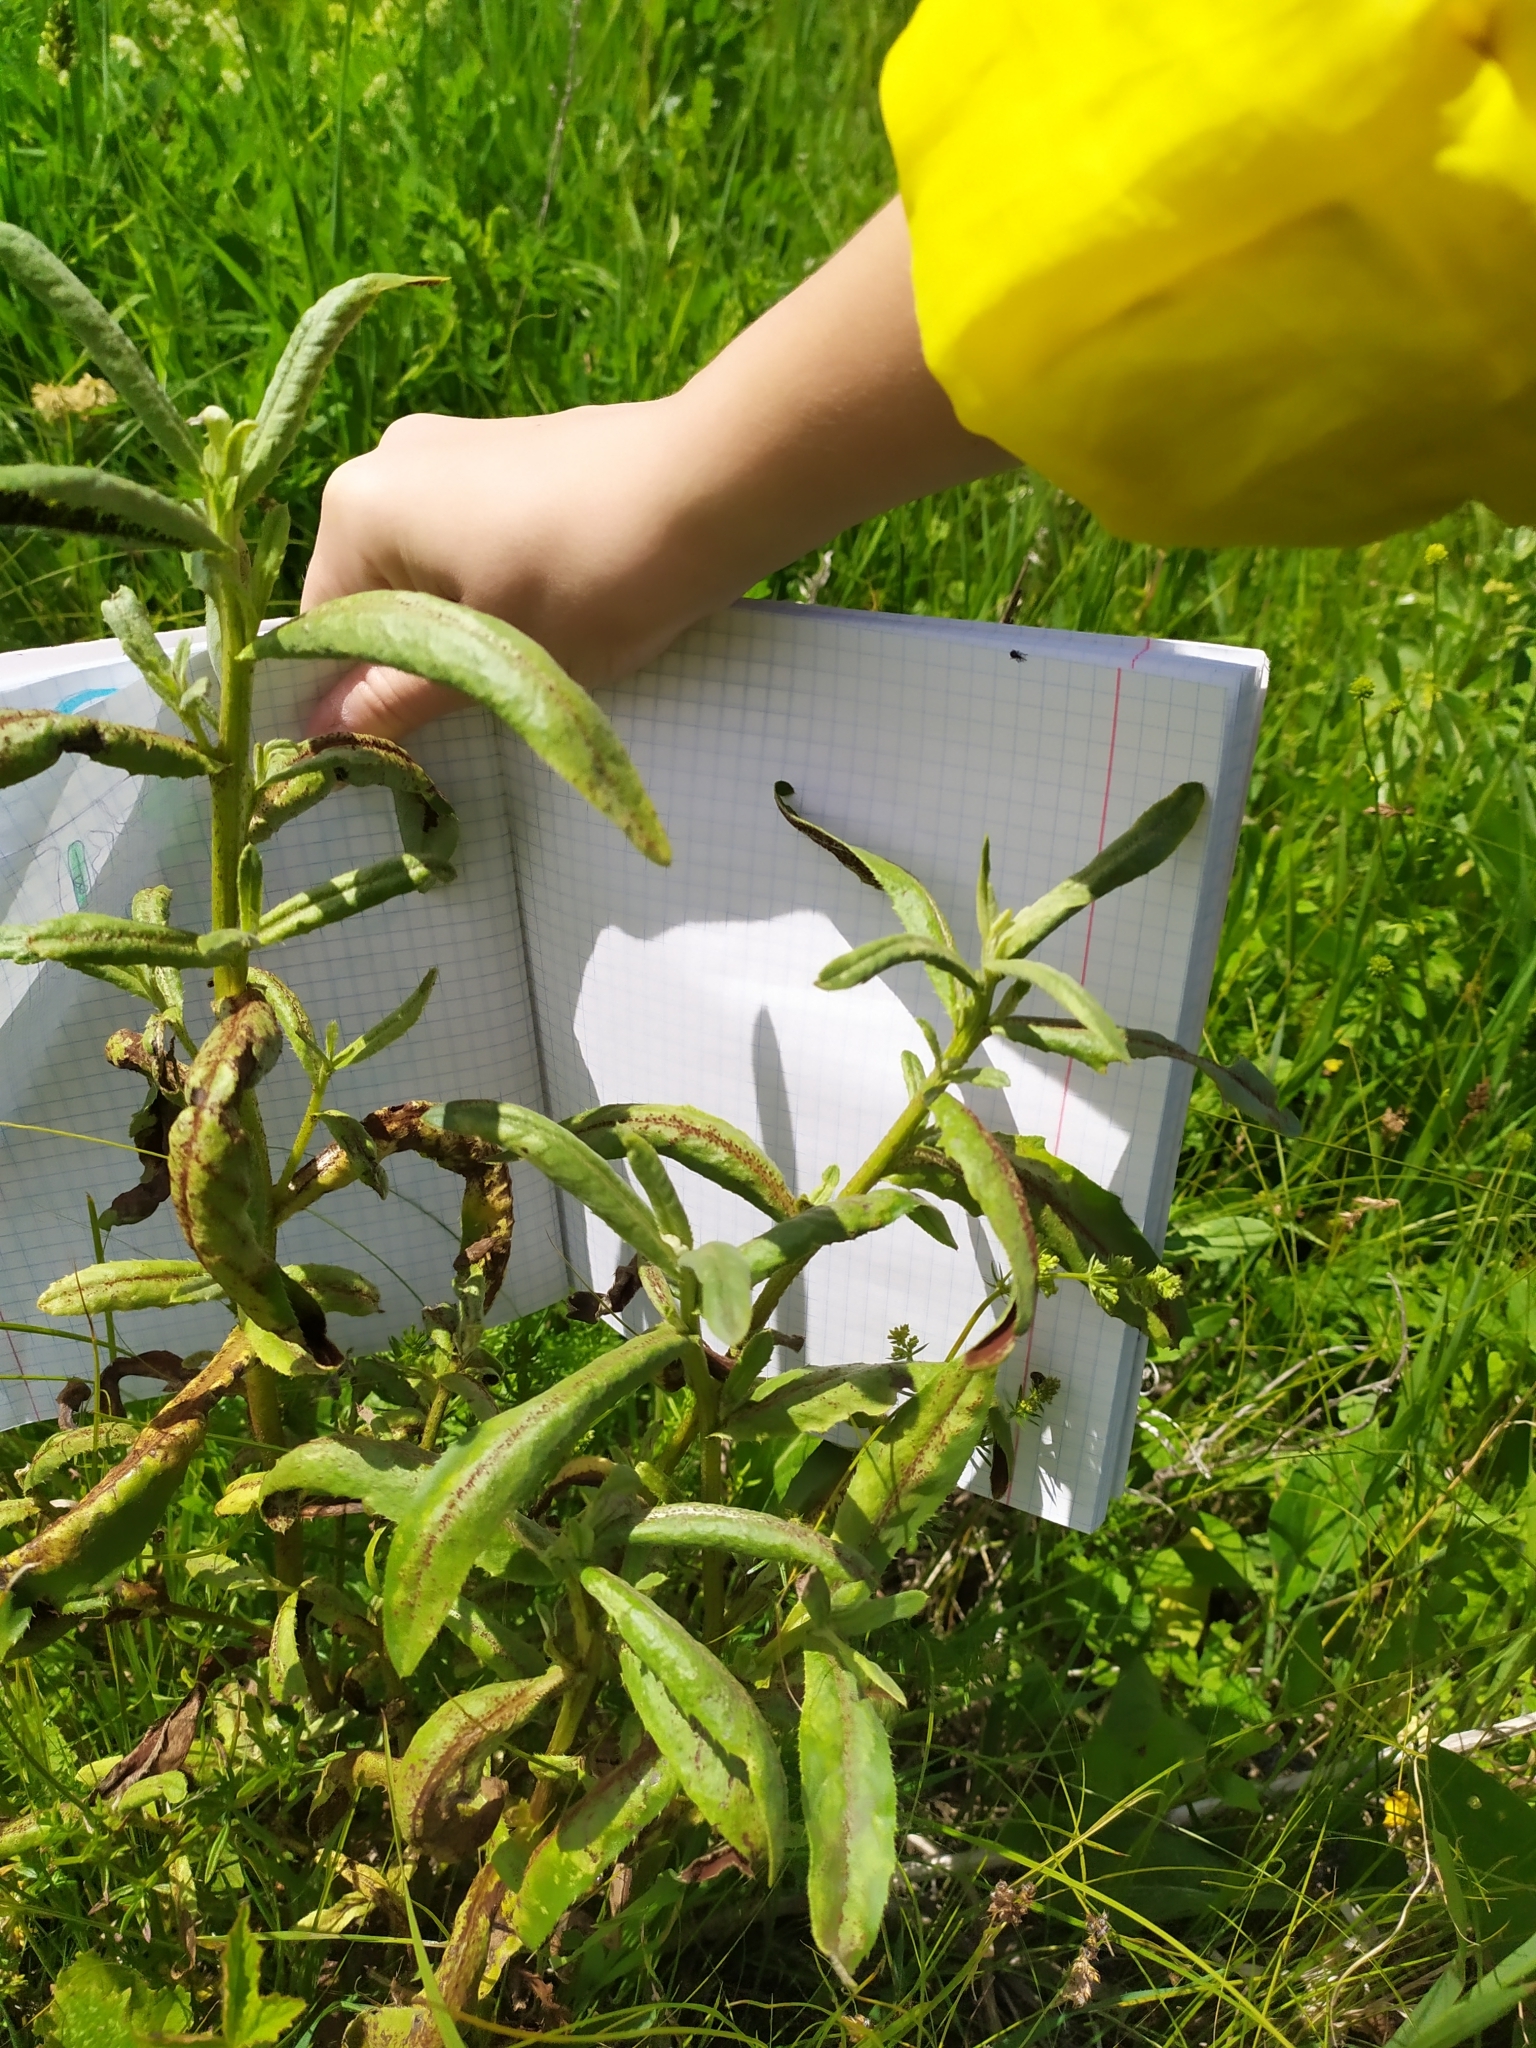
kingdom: Plantae
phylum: Tracheophyta
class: Magnoliopsida
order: Asterales
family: Asteraceae
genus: Cirsium
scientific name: Cirsium arvense
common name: Creeping thistle
